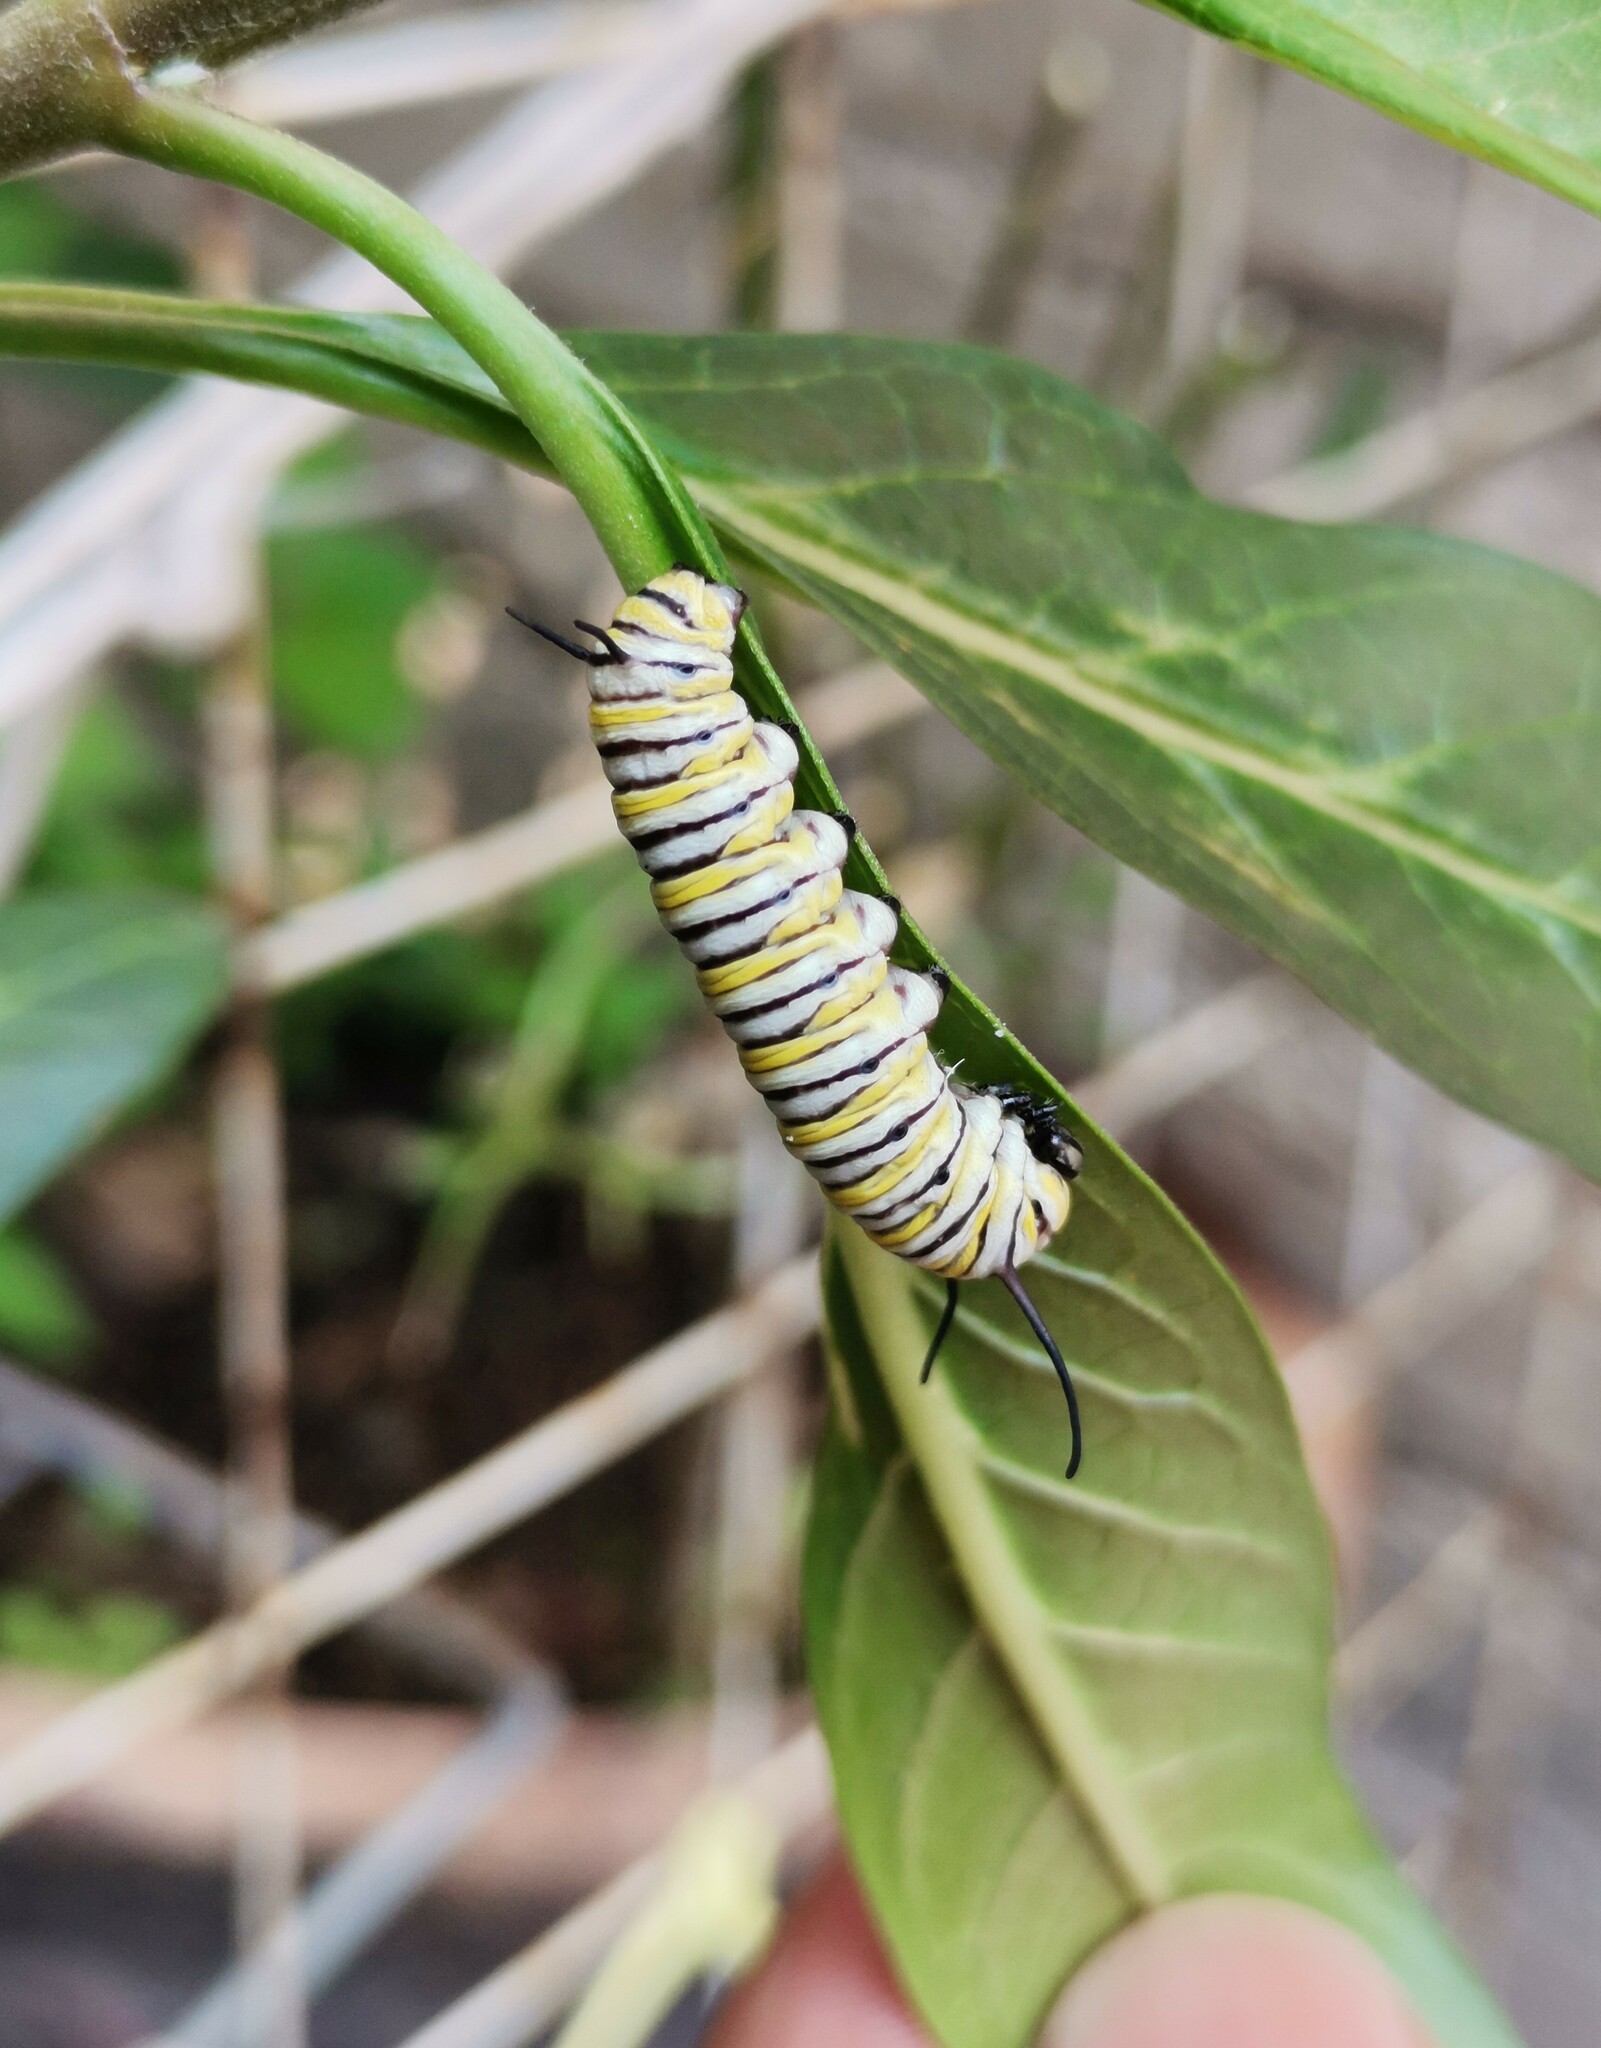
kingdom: Animalia
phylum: Arthropoda
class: Insecta
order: Lepidoptera
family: Nymphalidae
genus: Danaus
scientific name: Danaus plexippus
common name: Monarch
